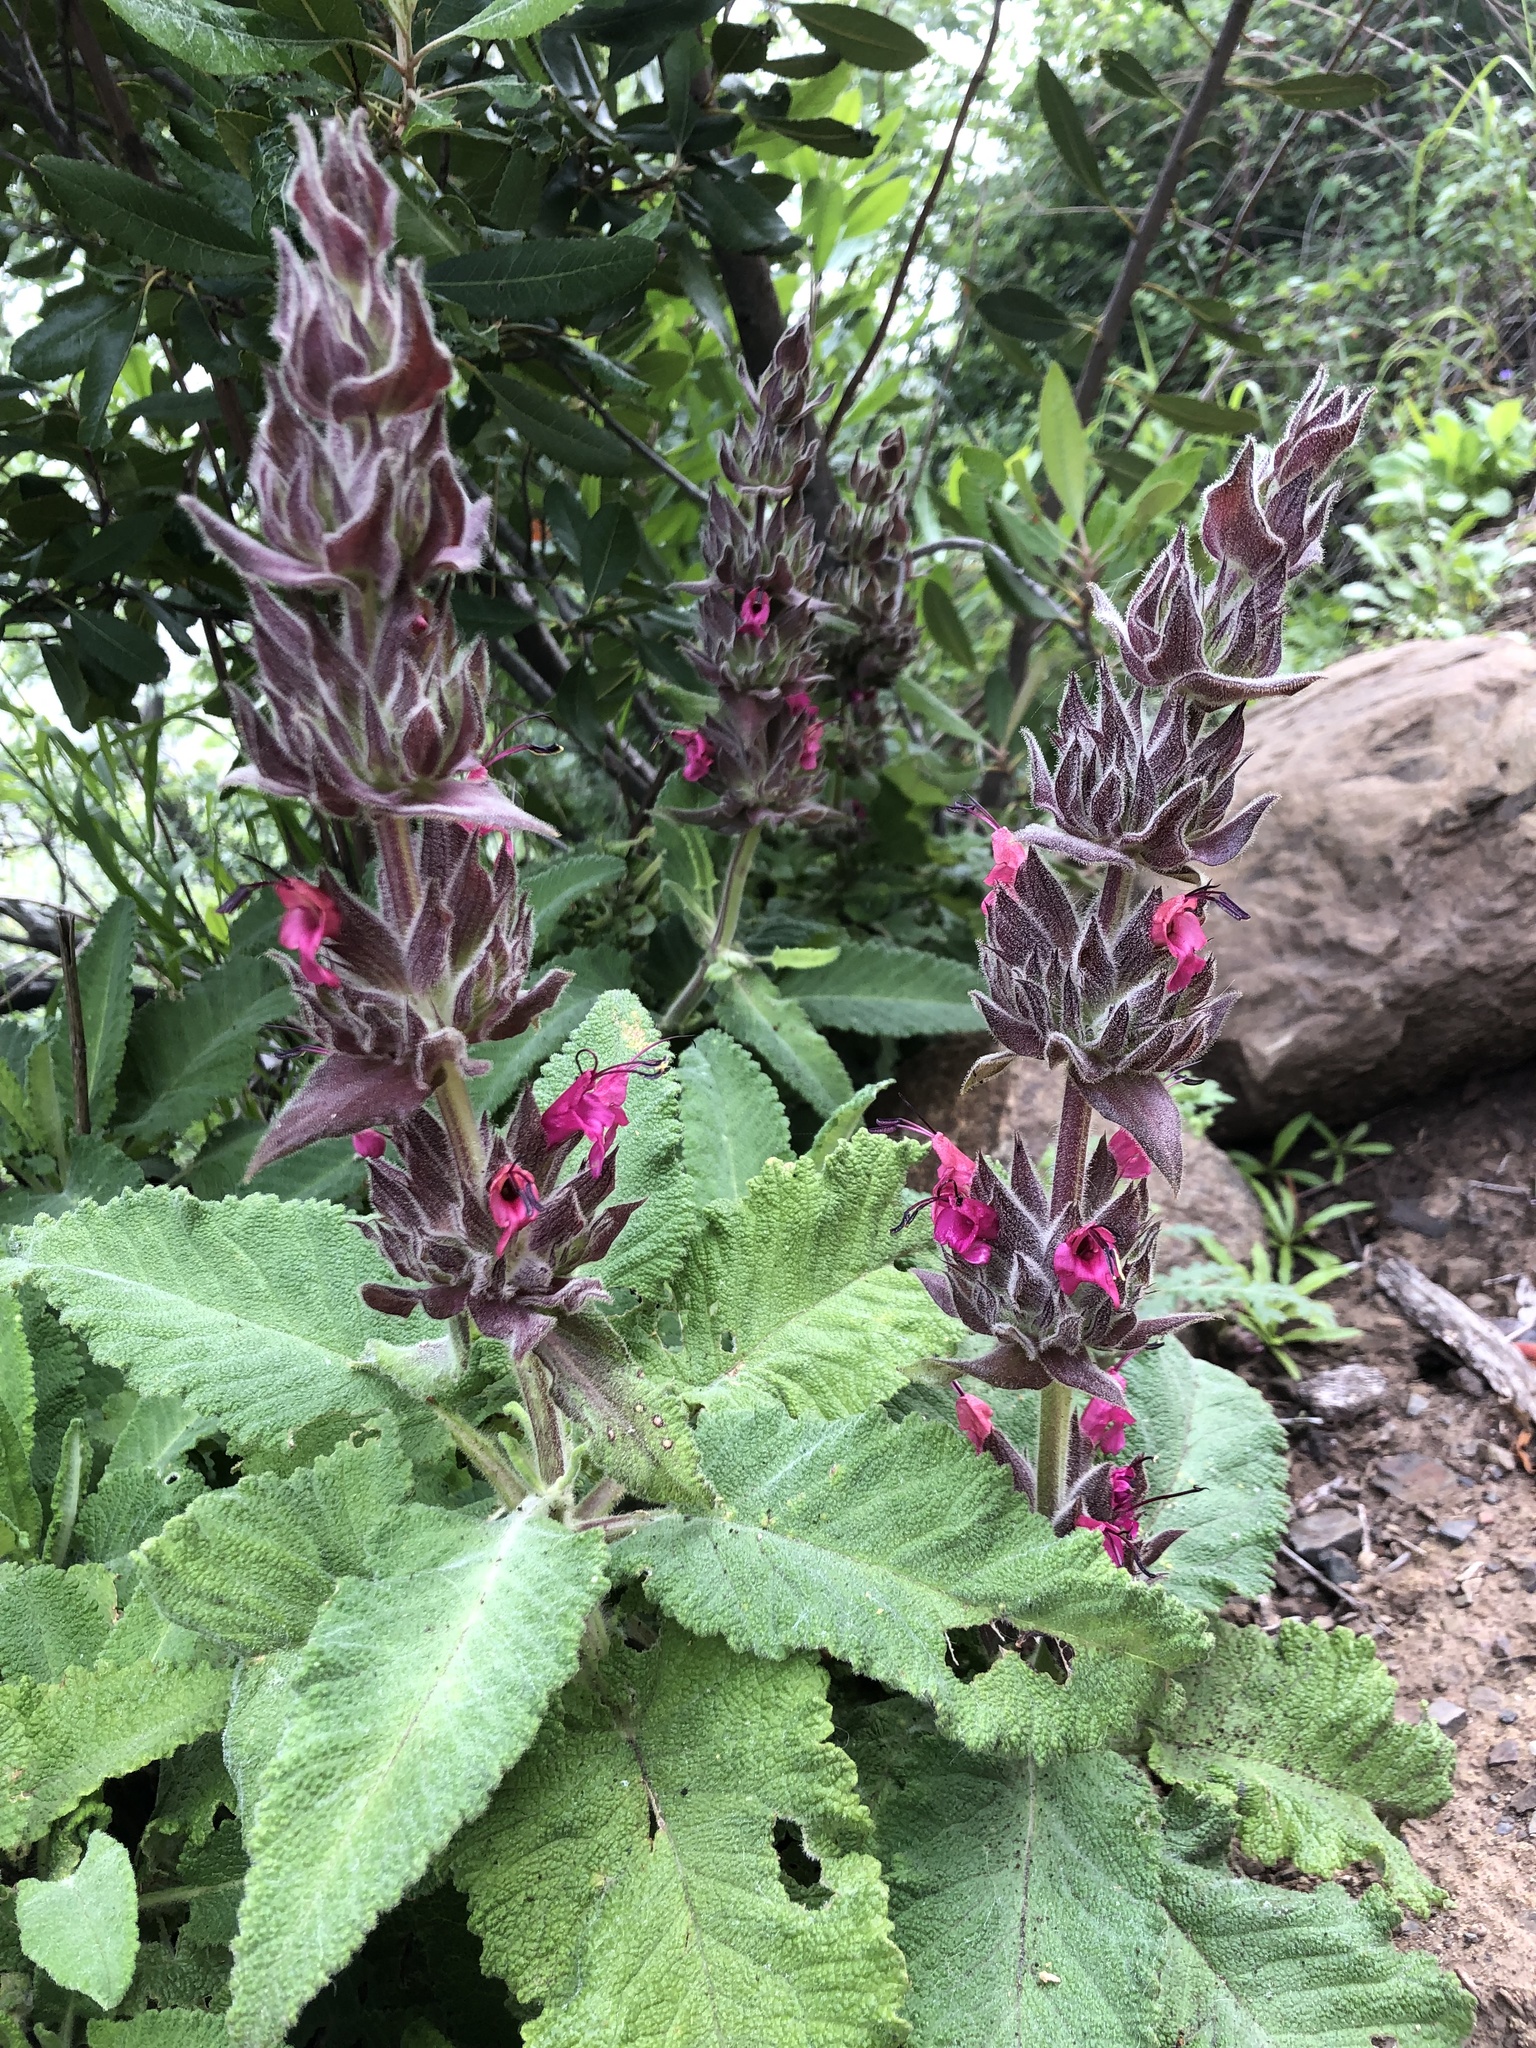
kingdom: Plantae
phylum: Tracheophyta
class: Magnoliopsida
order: Lamiales
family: Lamiaceae
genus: Salvia
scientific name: Salvia spathacea
